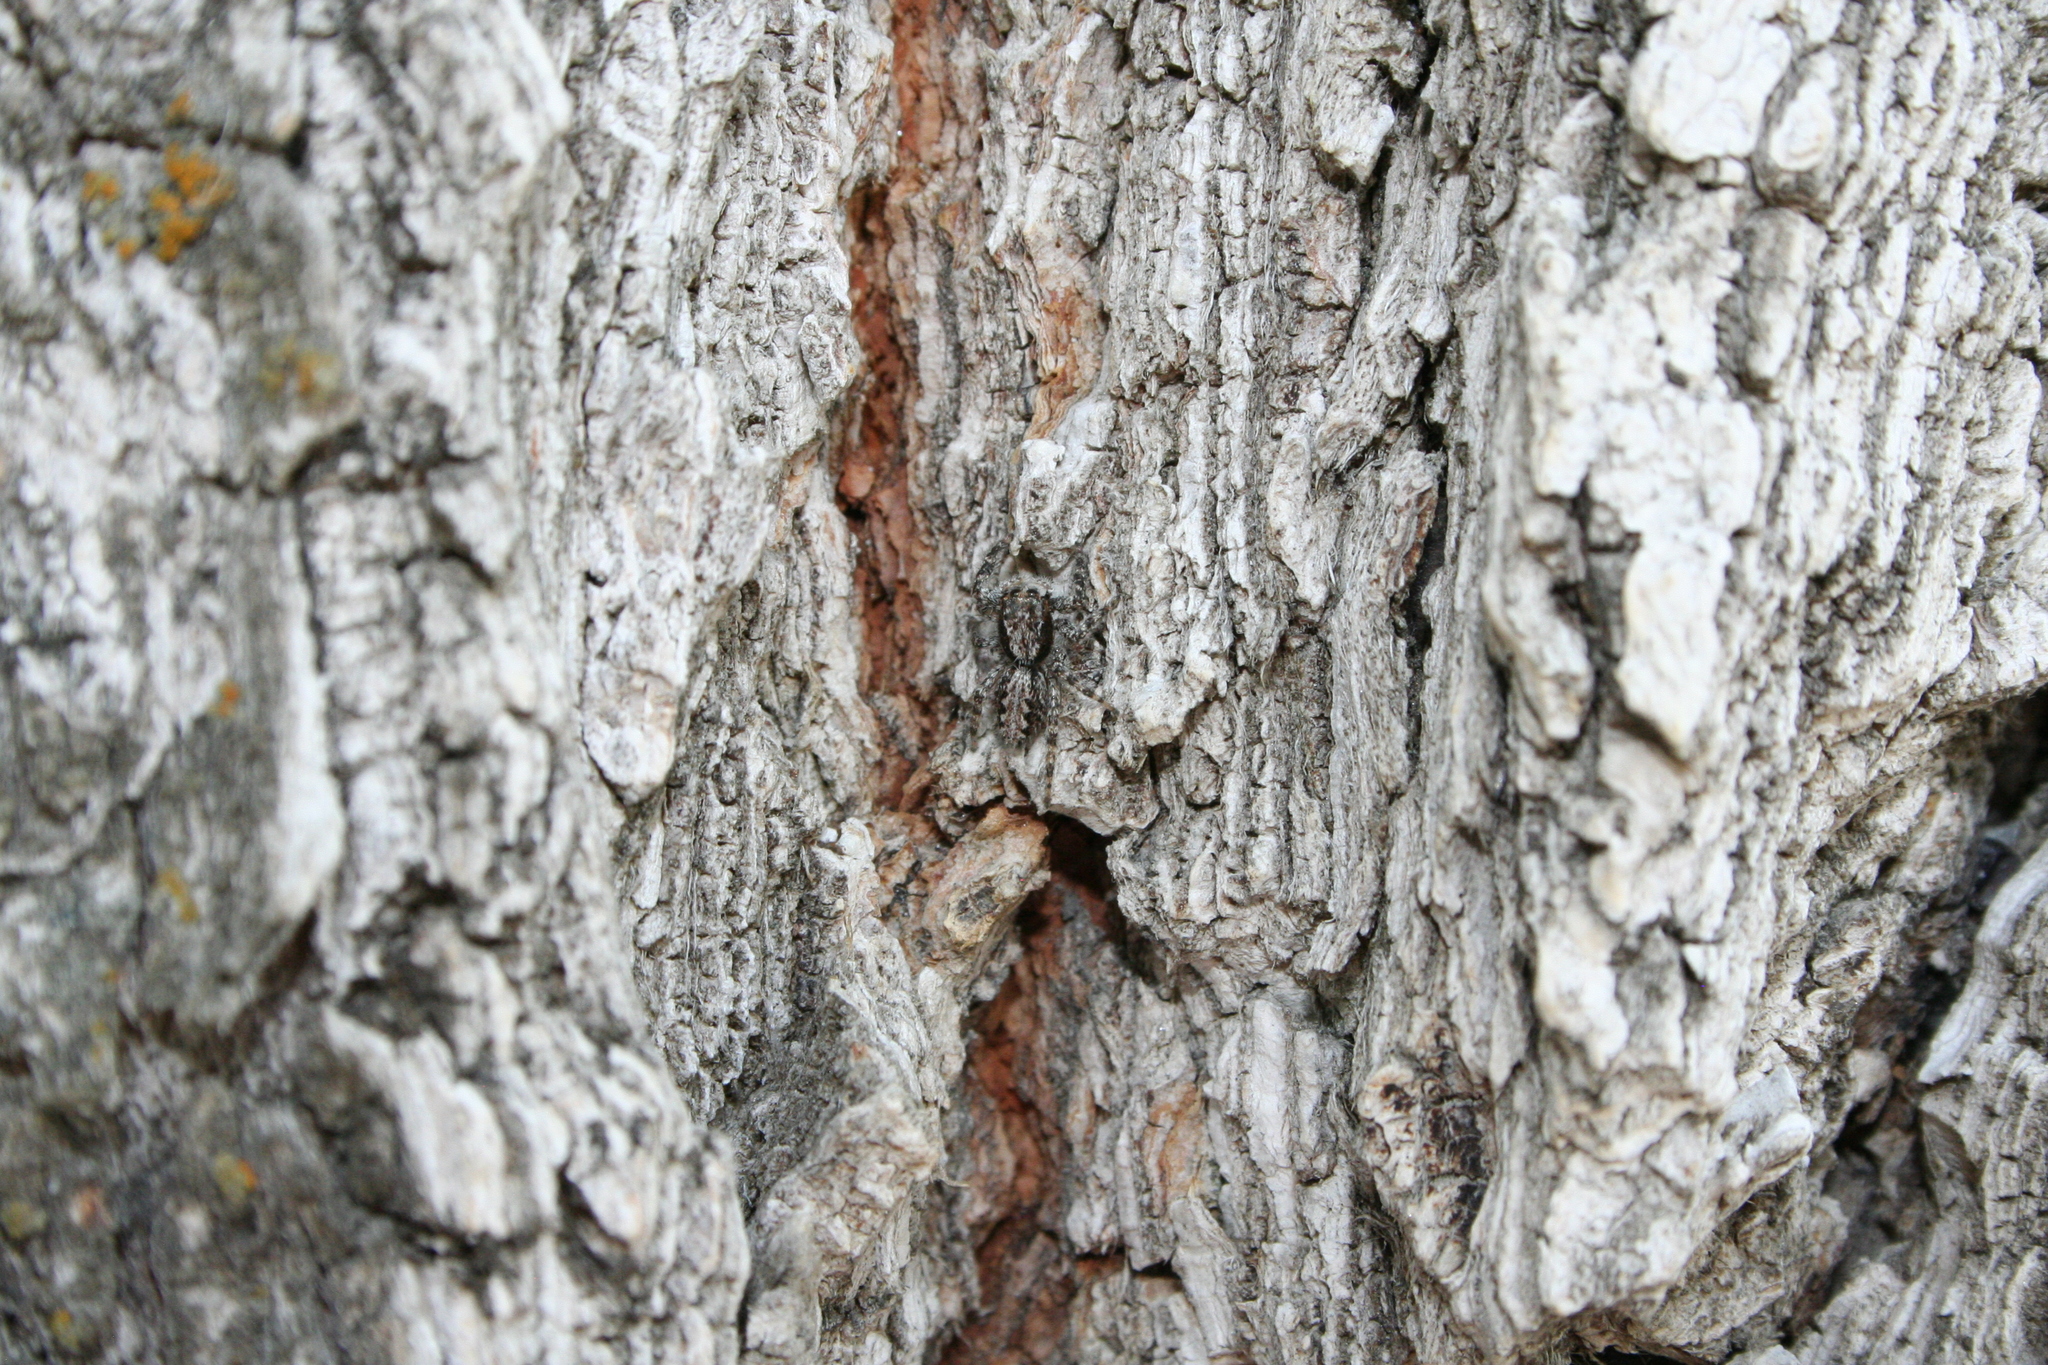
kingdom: Animalia
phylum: Arthropoda
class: Arachnida
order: Araneae
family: Salticidae
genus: Platycryptus
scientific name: Platycryptus californicus
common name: Jumping spiders
